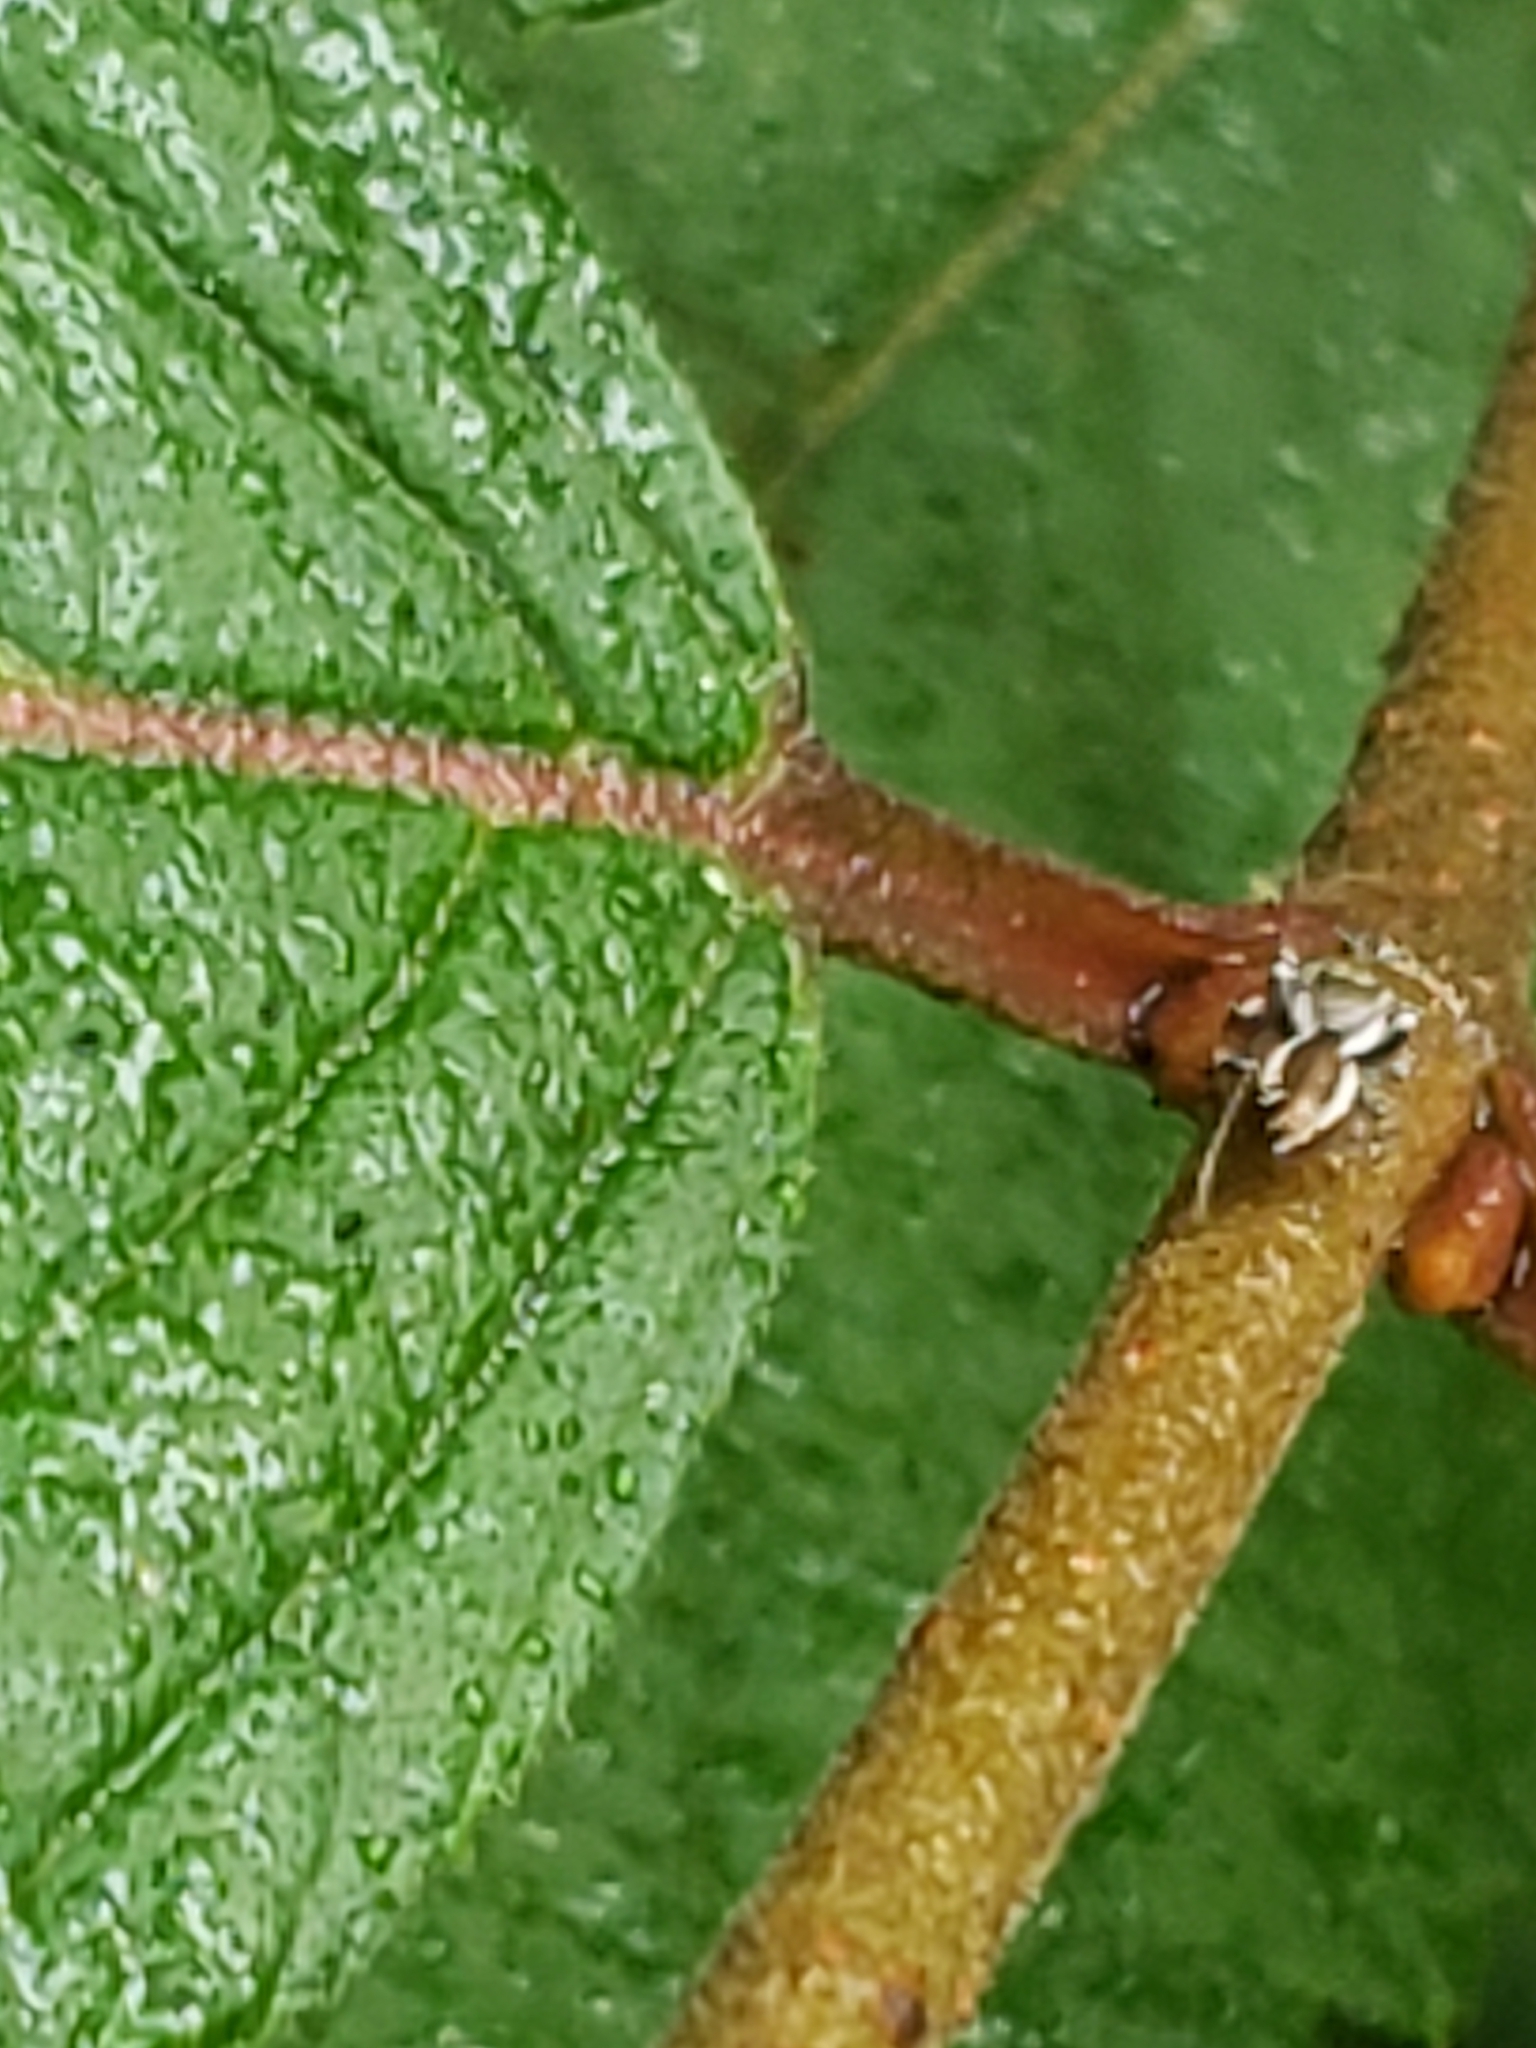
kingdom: Animalia
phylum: Arthropoda
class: Arachnida
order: Araneae
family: Salticidae
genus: Pelegrina
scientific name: Pelegrina galathea
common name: Jumping spiders
